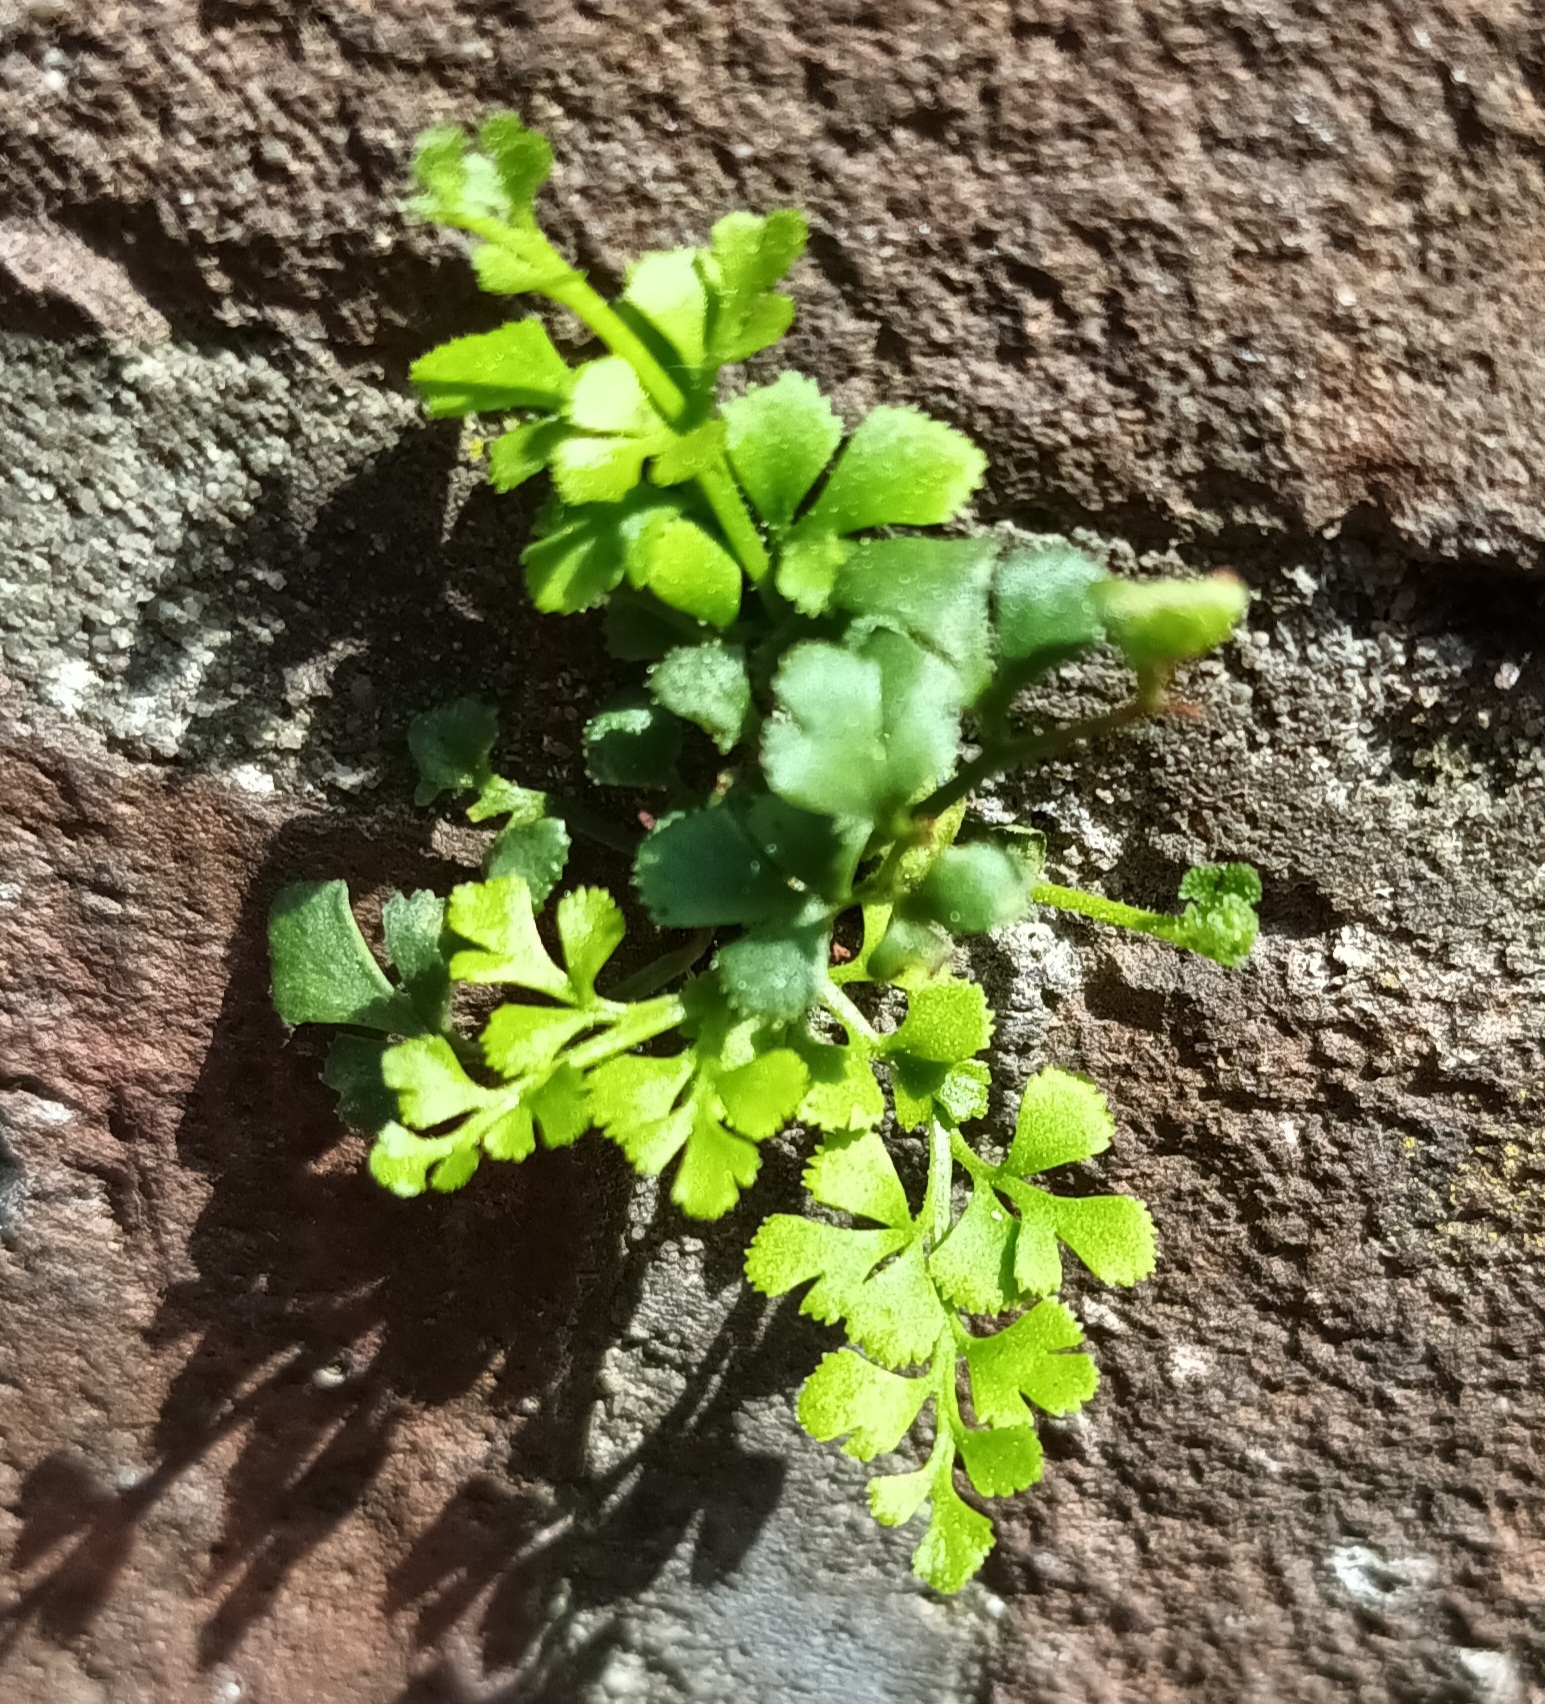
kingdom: Plantae
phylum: Tracheophyta
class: Polypodiopsida
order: Polypodiales
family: Aspleniaceae
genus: Asplenium
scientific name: Asplenium ruta-muraria
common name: Wall-rue
